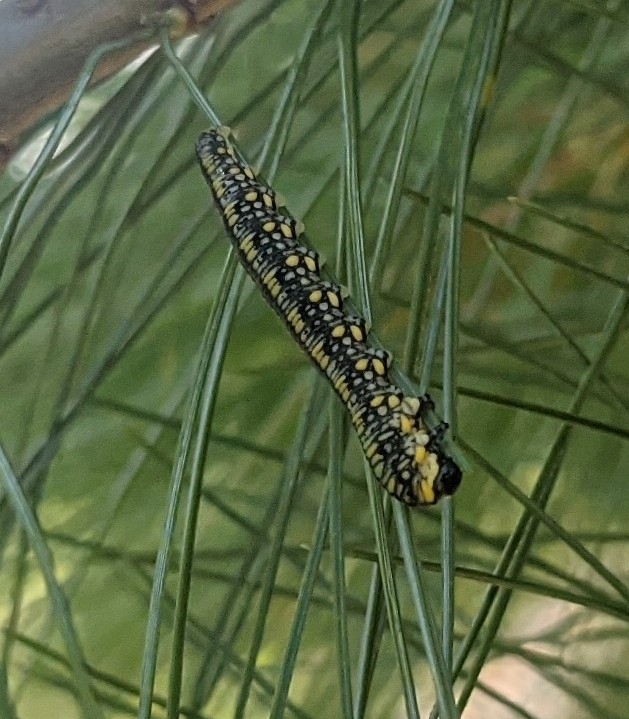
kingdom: Animalia
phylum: Arthropoda
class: Insecta
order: Hymenoptera
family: Diprionidae
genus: Diprion
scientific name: Diprion similis
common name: Pine sawfly
